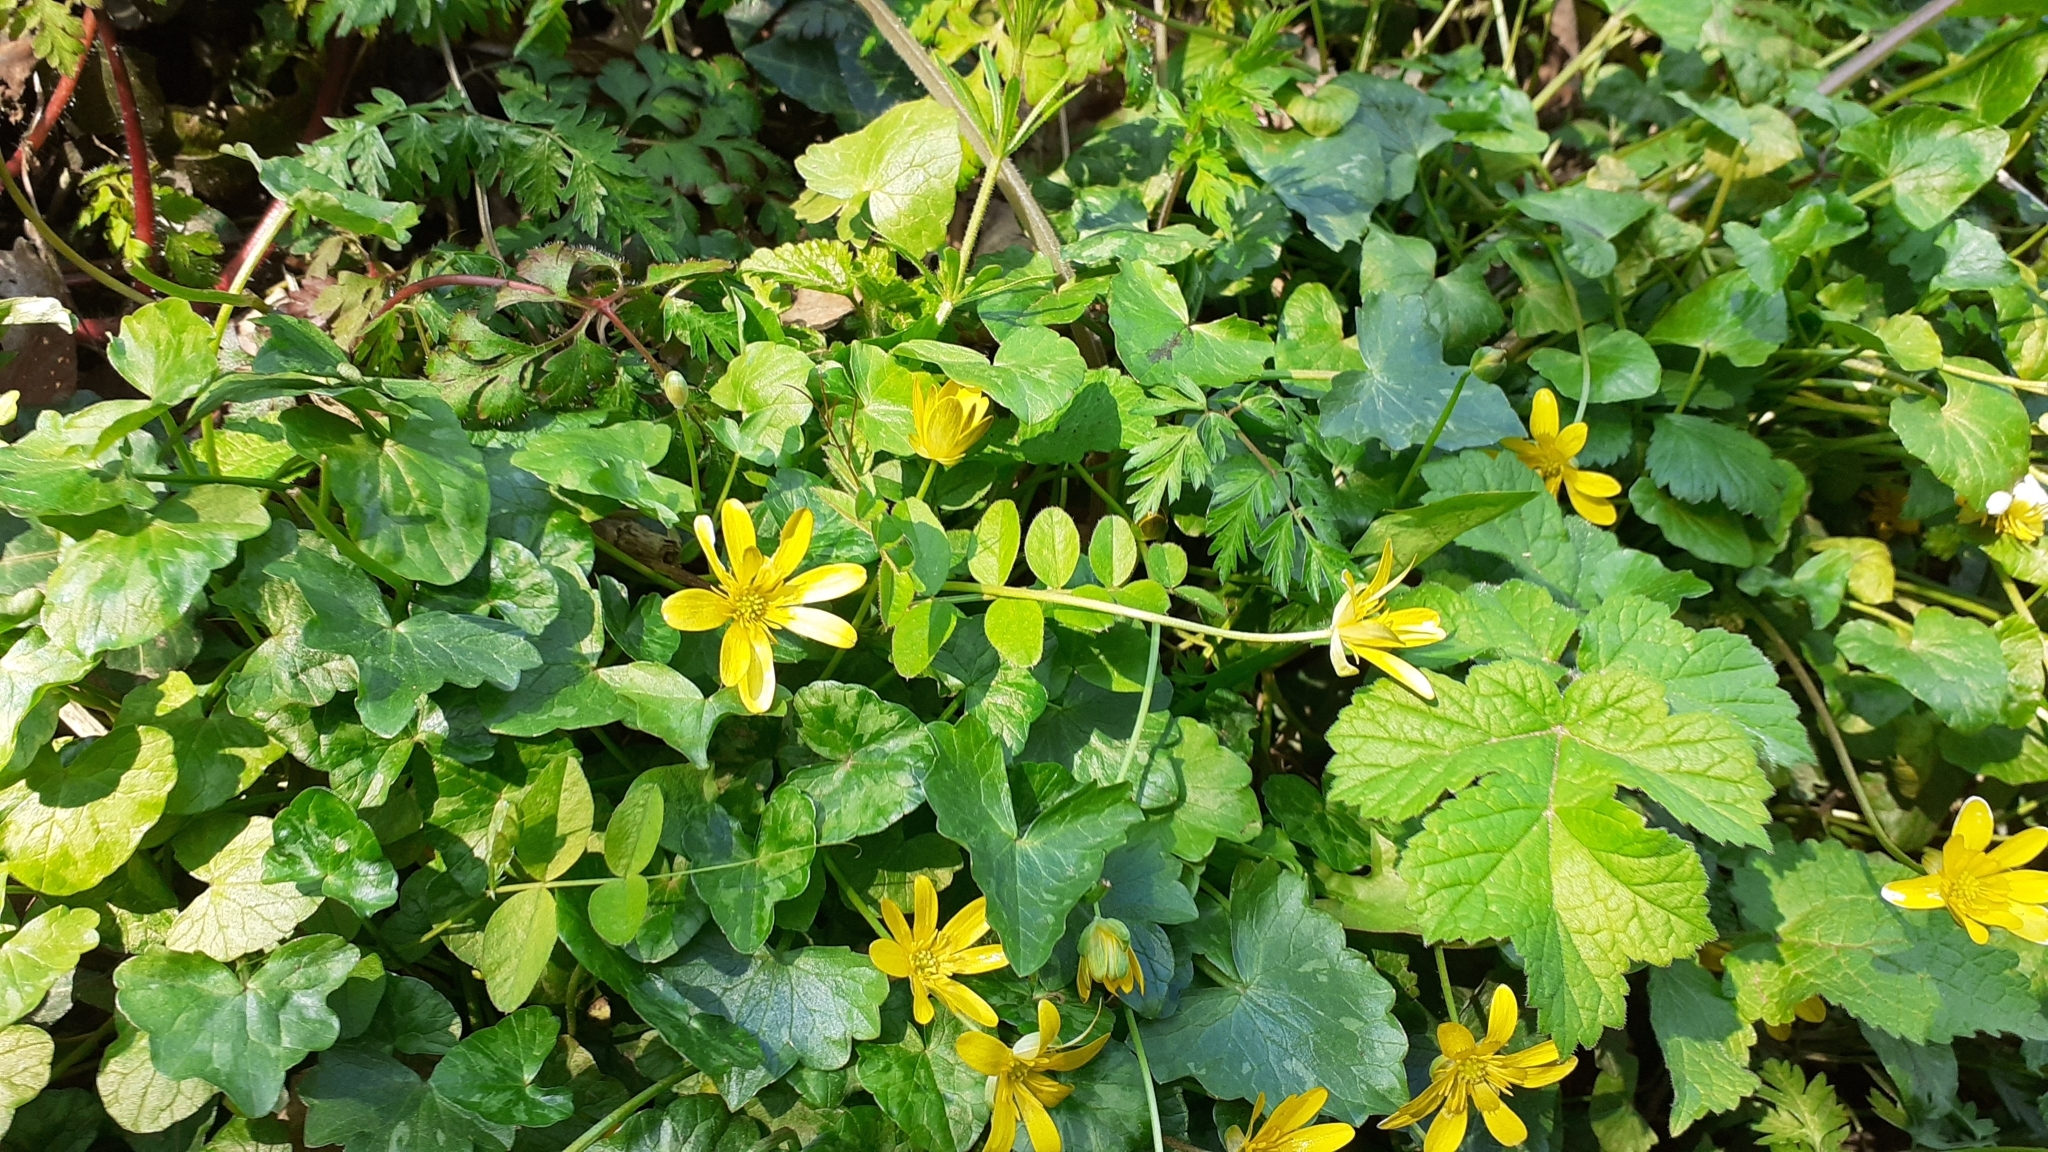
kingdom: Plantae
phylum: Tracheophyta
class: Magnoliopsida
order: Ranunculales
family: Ranunculaceae
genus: Ficaria
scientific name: Ficaria verna
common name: Lesser celandine
